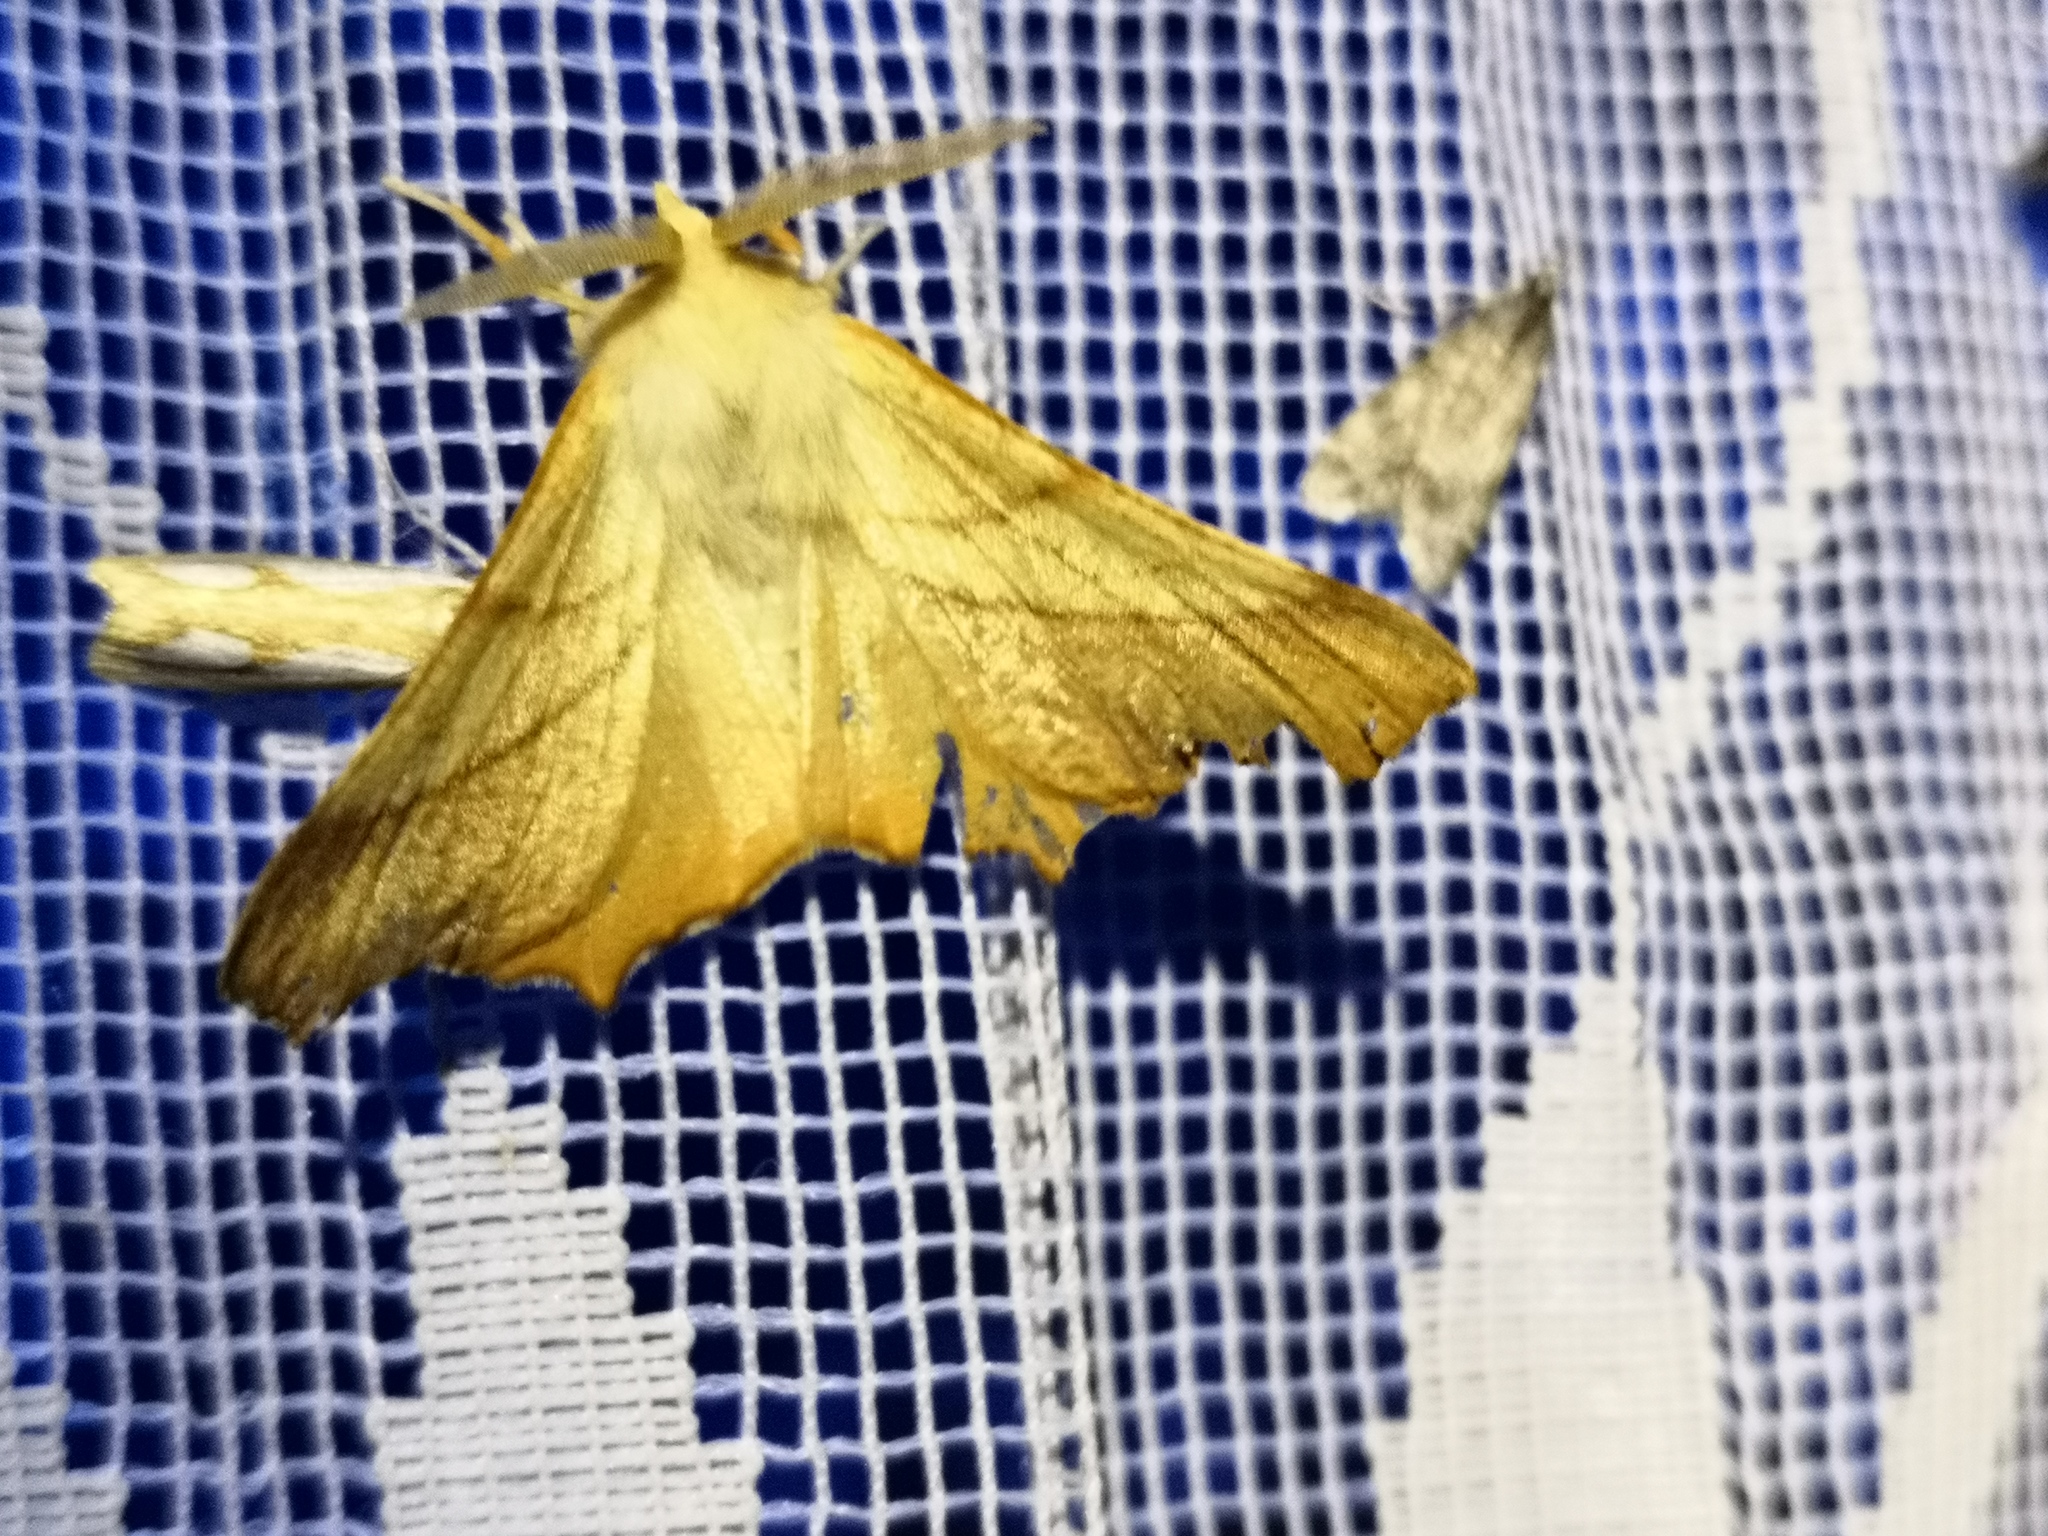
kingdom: Animalia
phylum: Arthropoda
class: Insecta
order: Lepidoptera
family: Geometridae
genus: Ennomos
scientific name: Ennomos fuscantaria
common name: Dusky thorn
